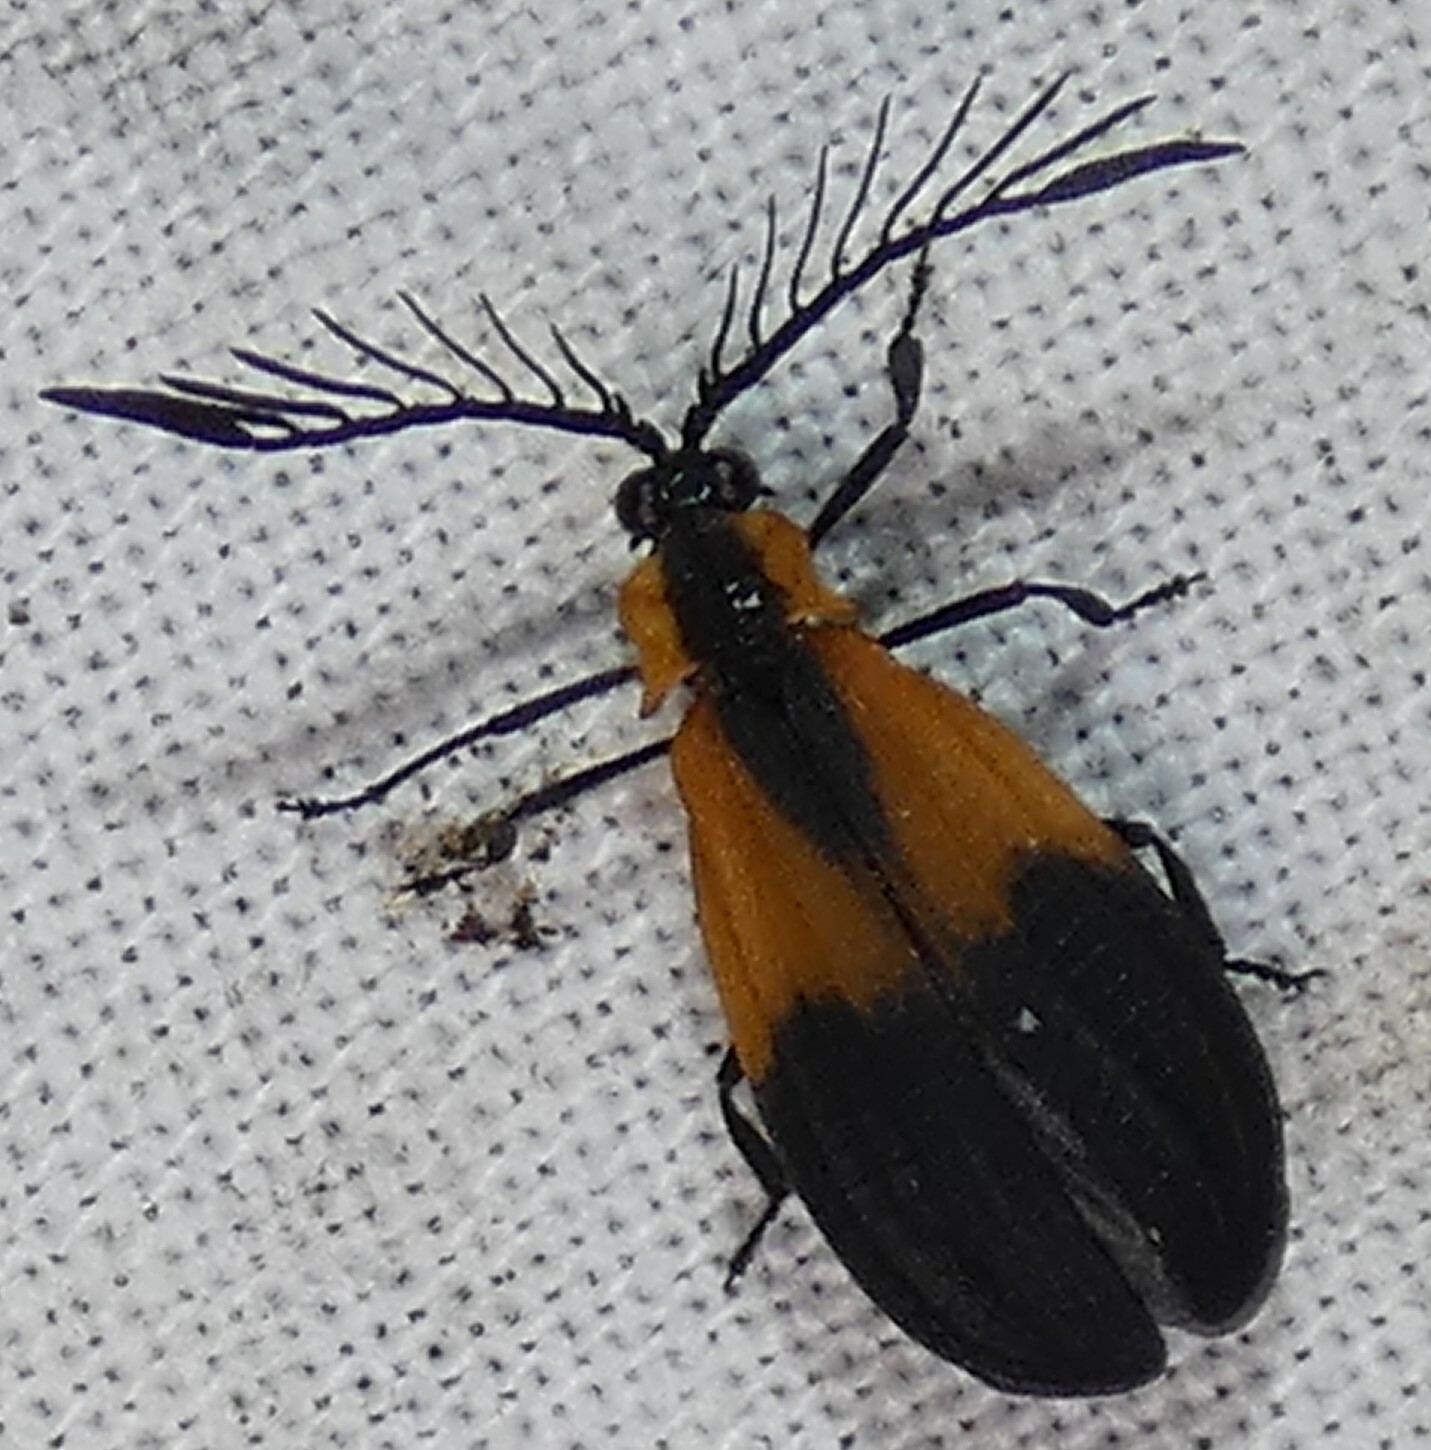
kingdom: Animalia
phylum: Arthropoda
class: Insecta
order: Coleoptera
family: Lycidae
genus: Caenia
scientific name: Caenia dimidiata
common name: Terminal net-winged beetle
